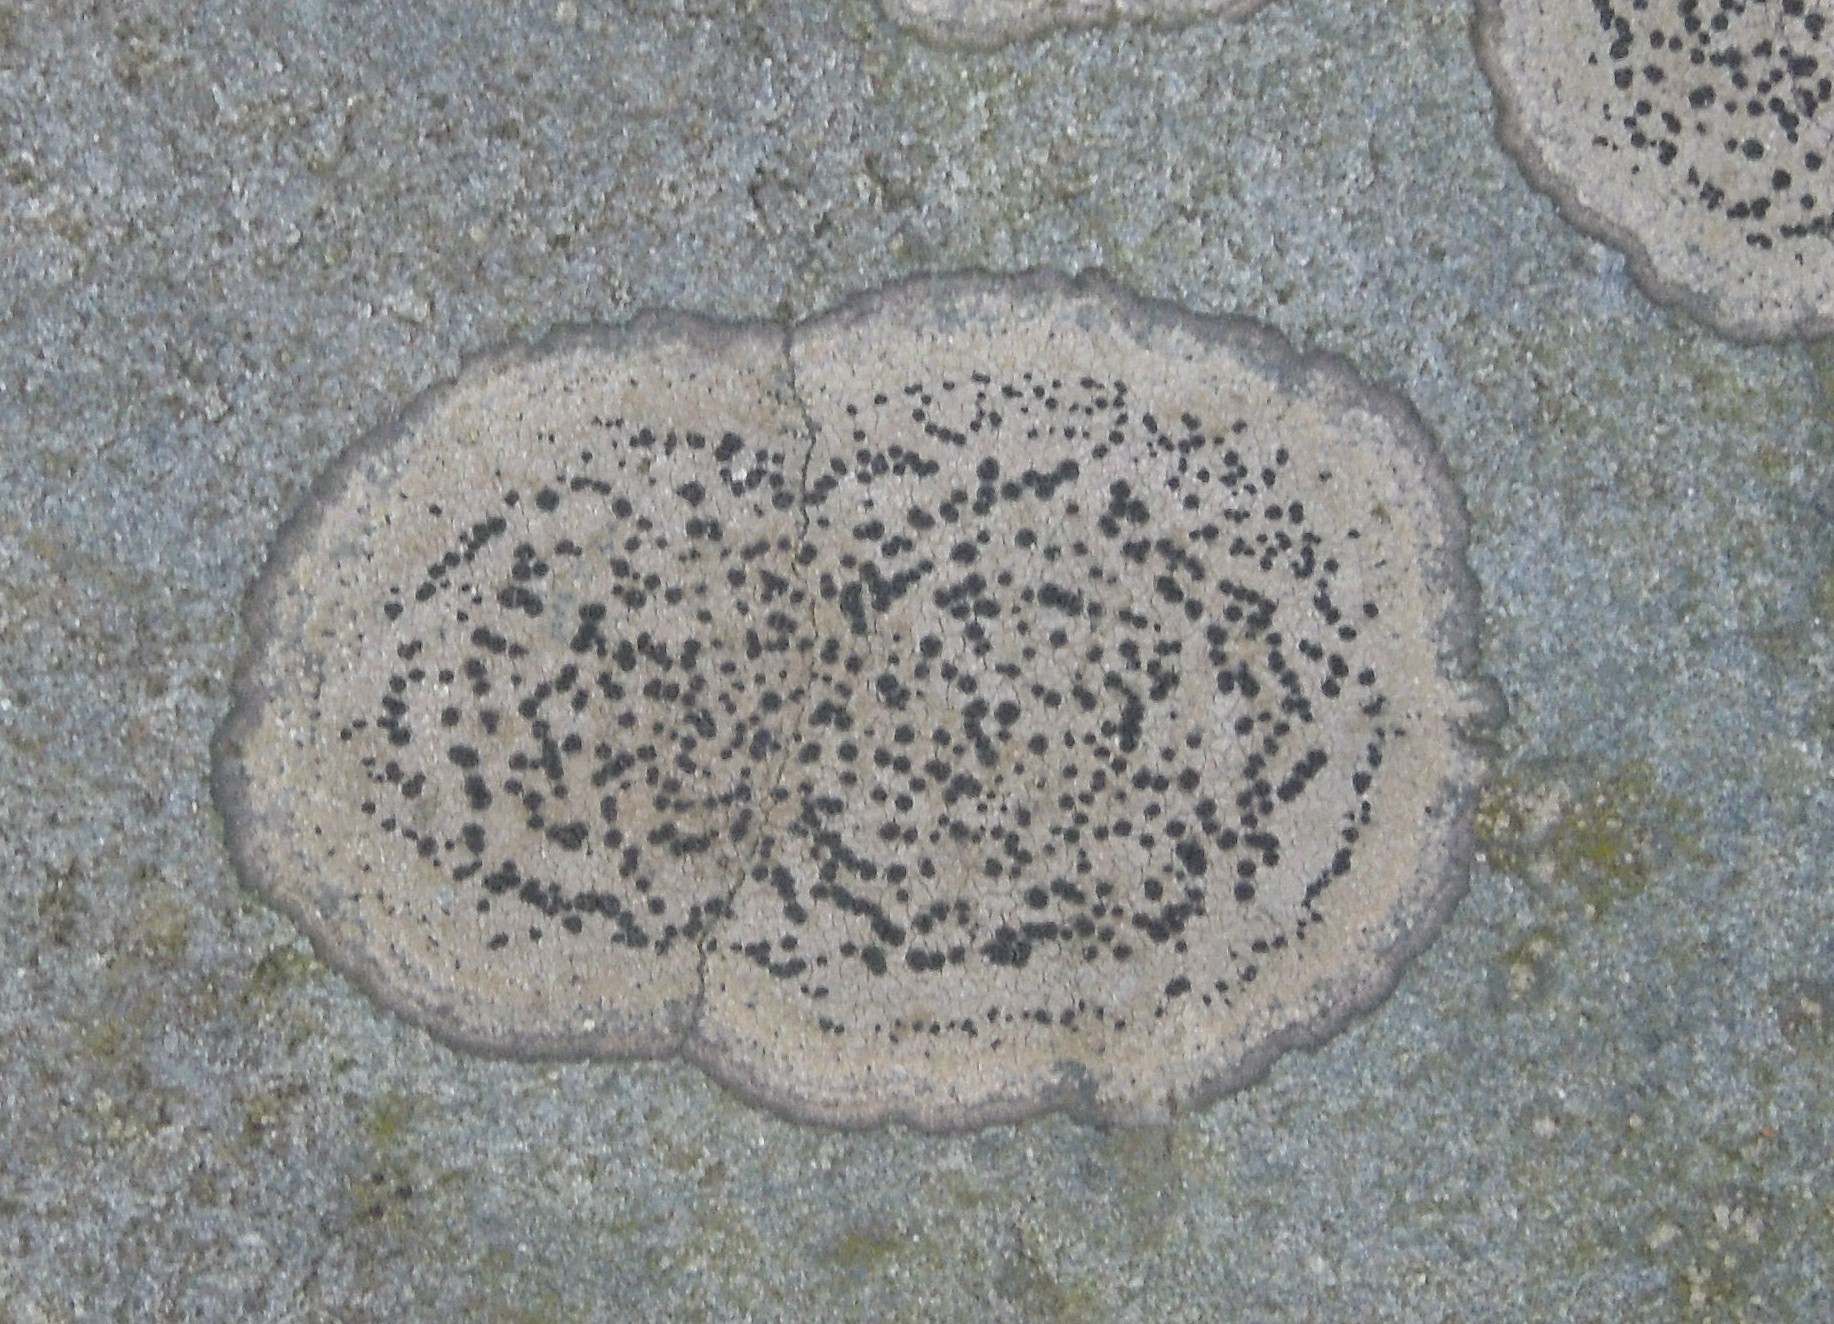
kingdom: Fungi
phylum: Ascomycota
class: Lecanoromycetes
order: Lecideales
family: Lecideaceae
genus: Porpidia
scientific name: Porpidia crustulata
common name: Concentric boulder lichen
